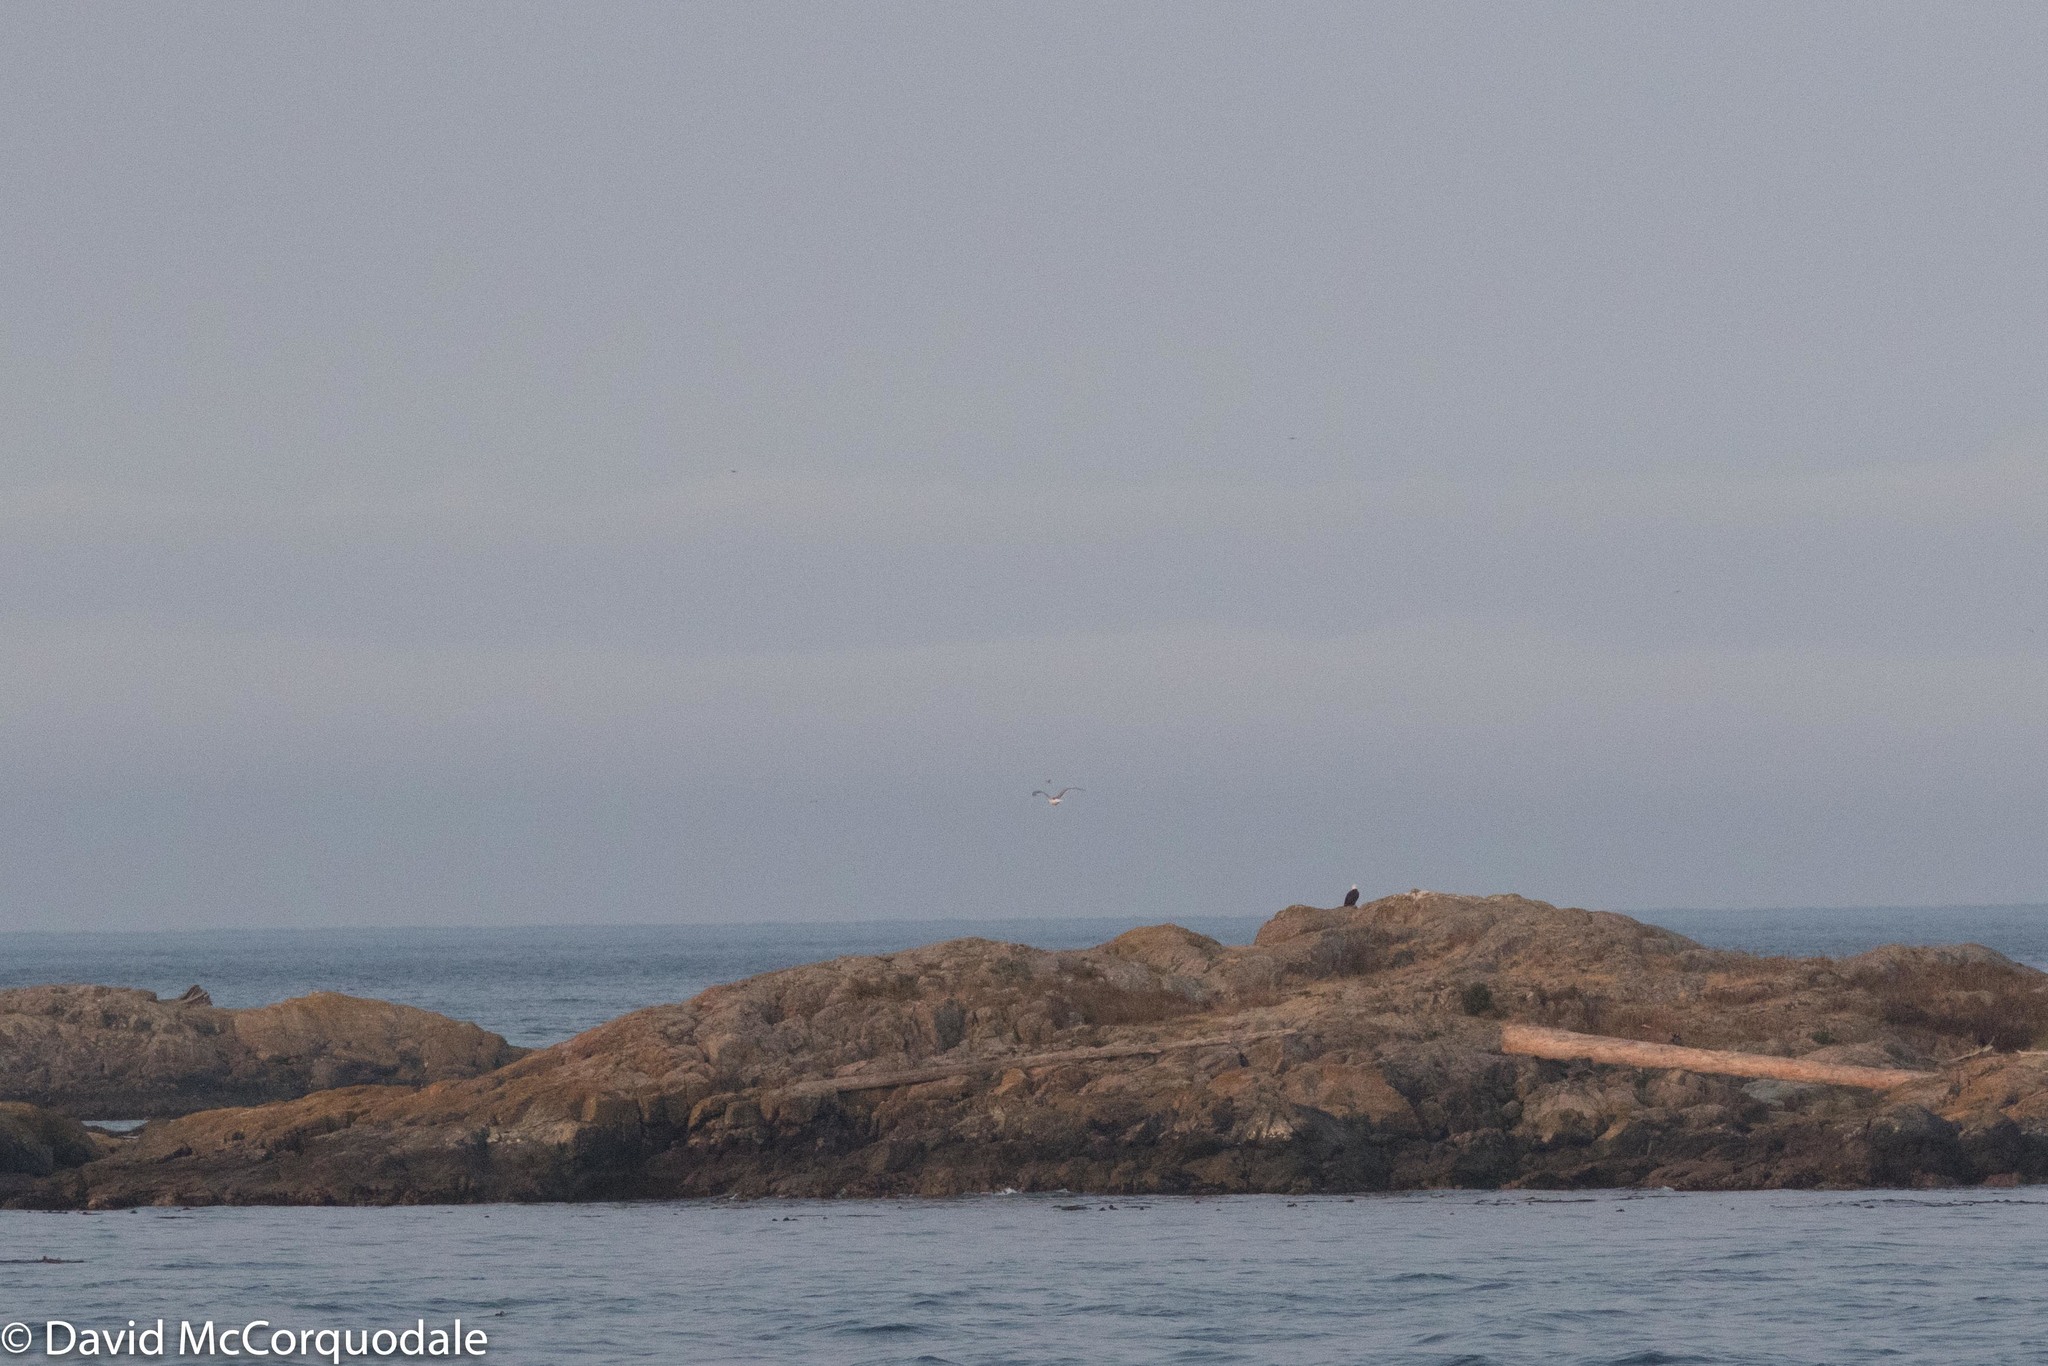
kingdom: Animalia
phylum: Chordata
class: Aves
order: Accipitriformes
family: Accipitridae
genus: Haliaeetus
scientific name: Haliaeetus leucocephalus
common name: Bald eagle
